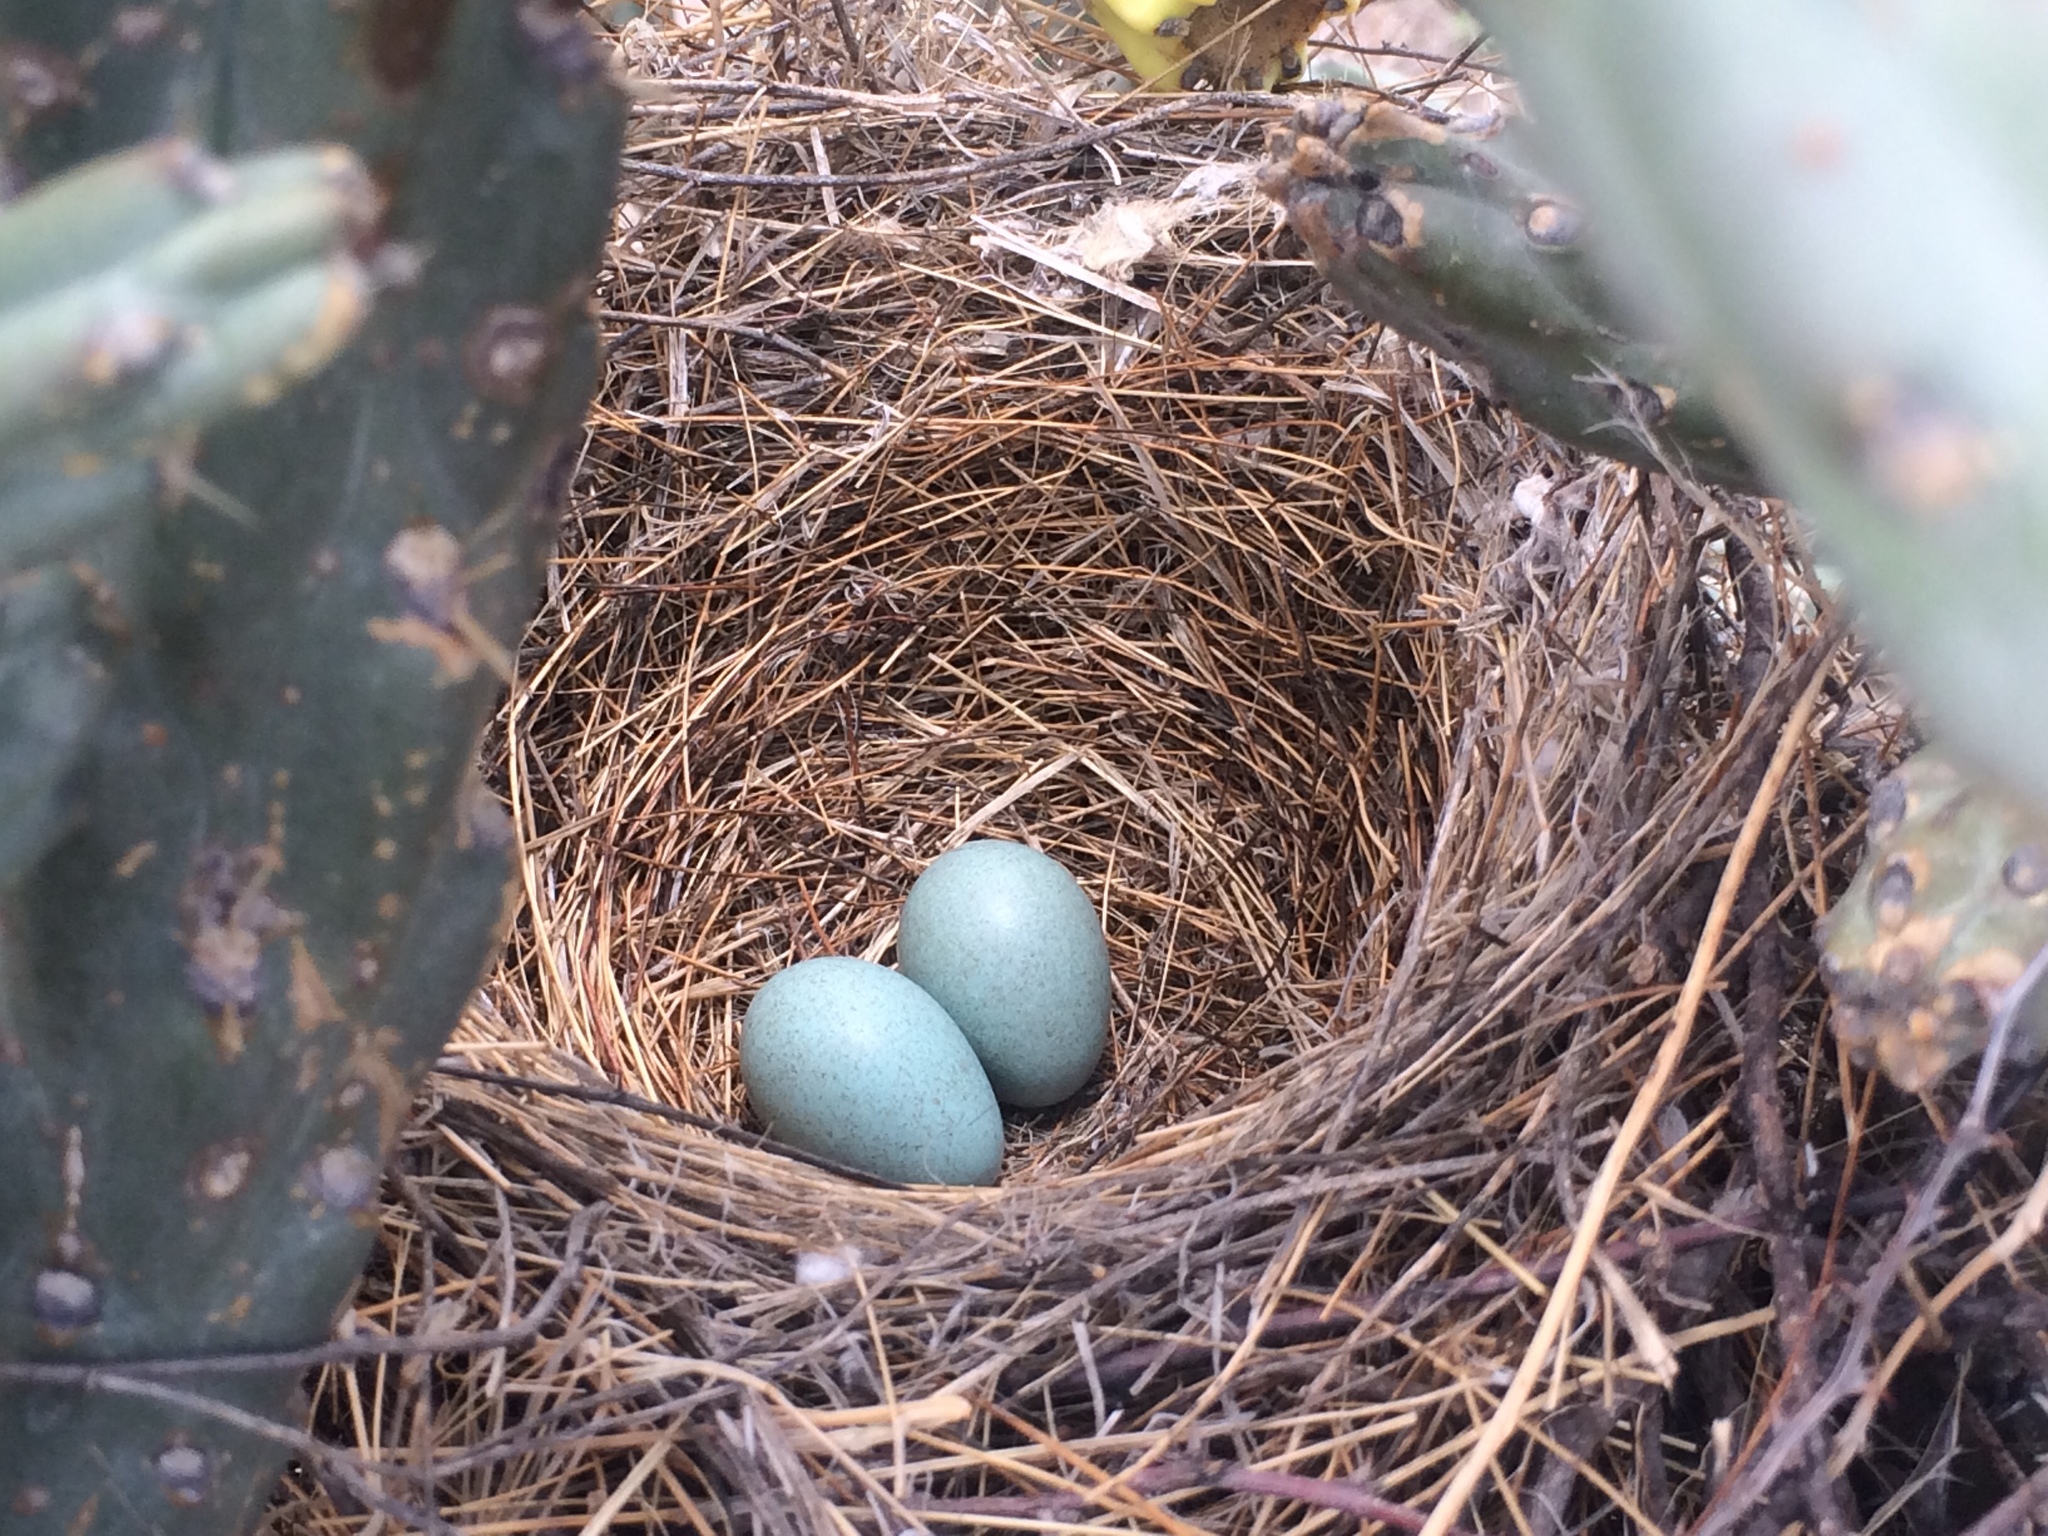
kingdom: Animalia
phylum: Chordata
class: Aves
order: Passeriformes
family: Mimidae
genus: Toxostoma
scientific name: Toxostoma curvirostre
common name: Curve-billed thrasher
